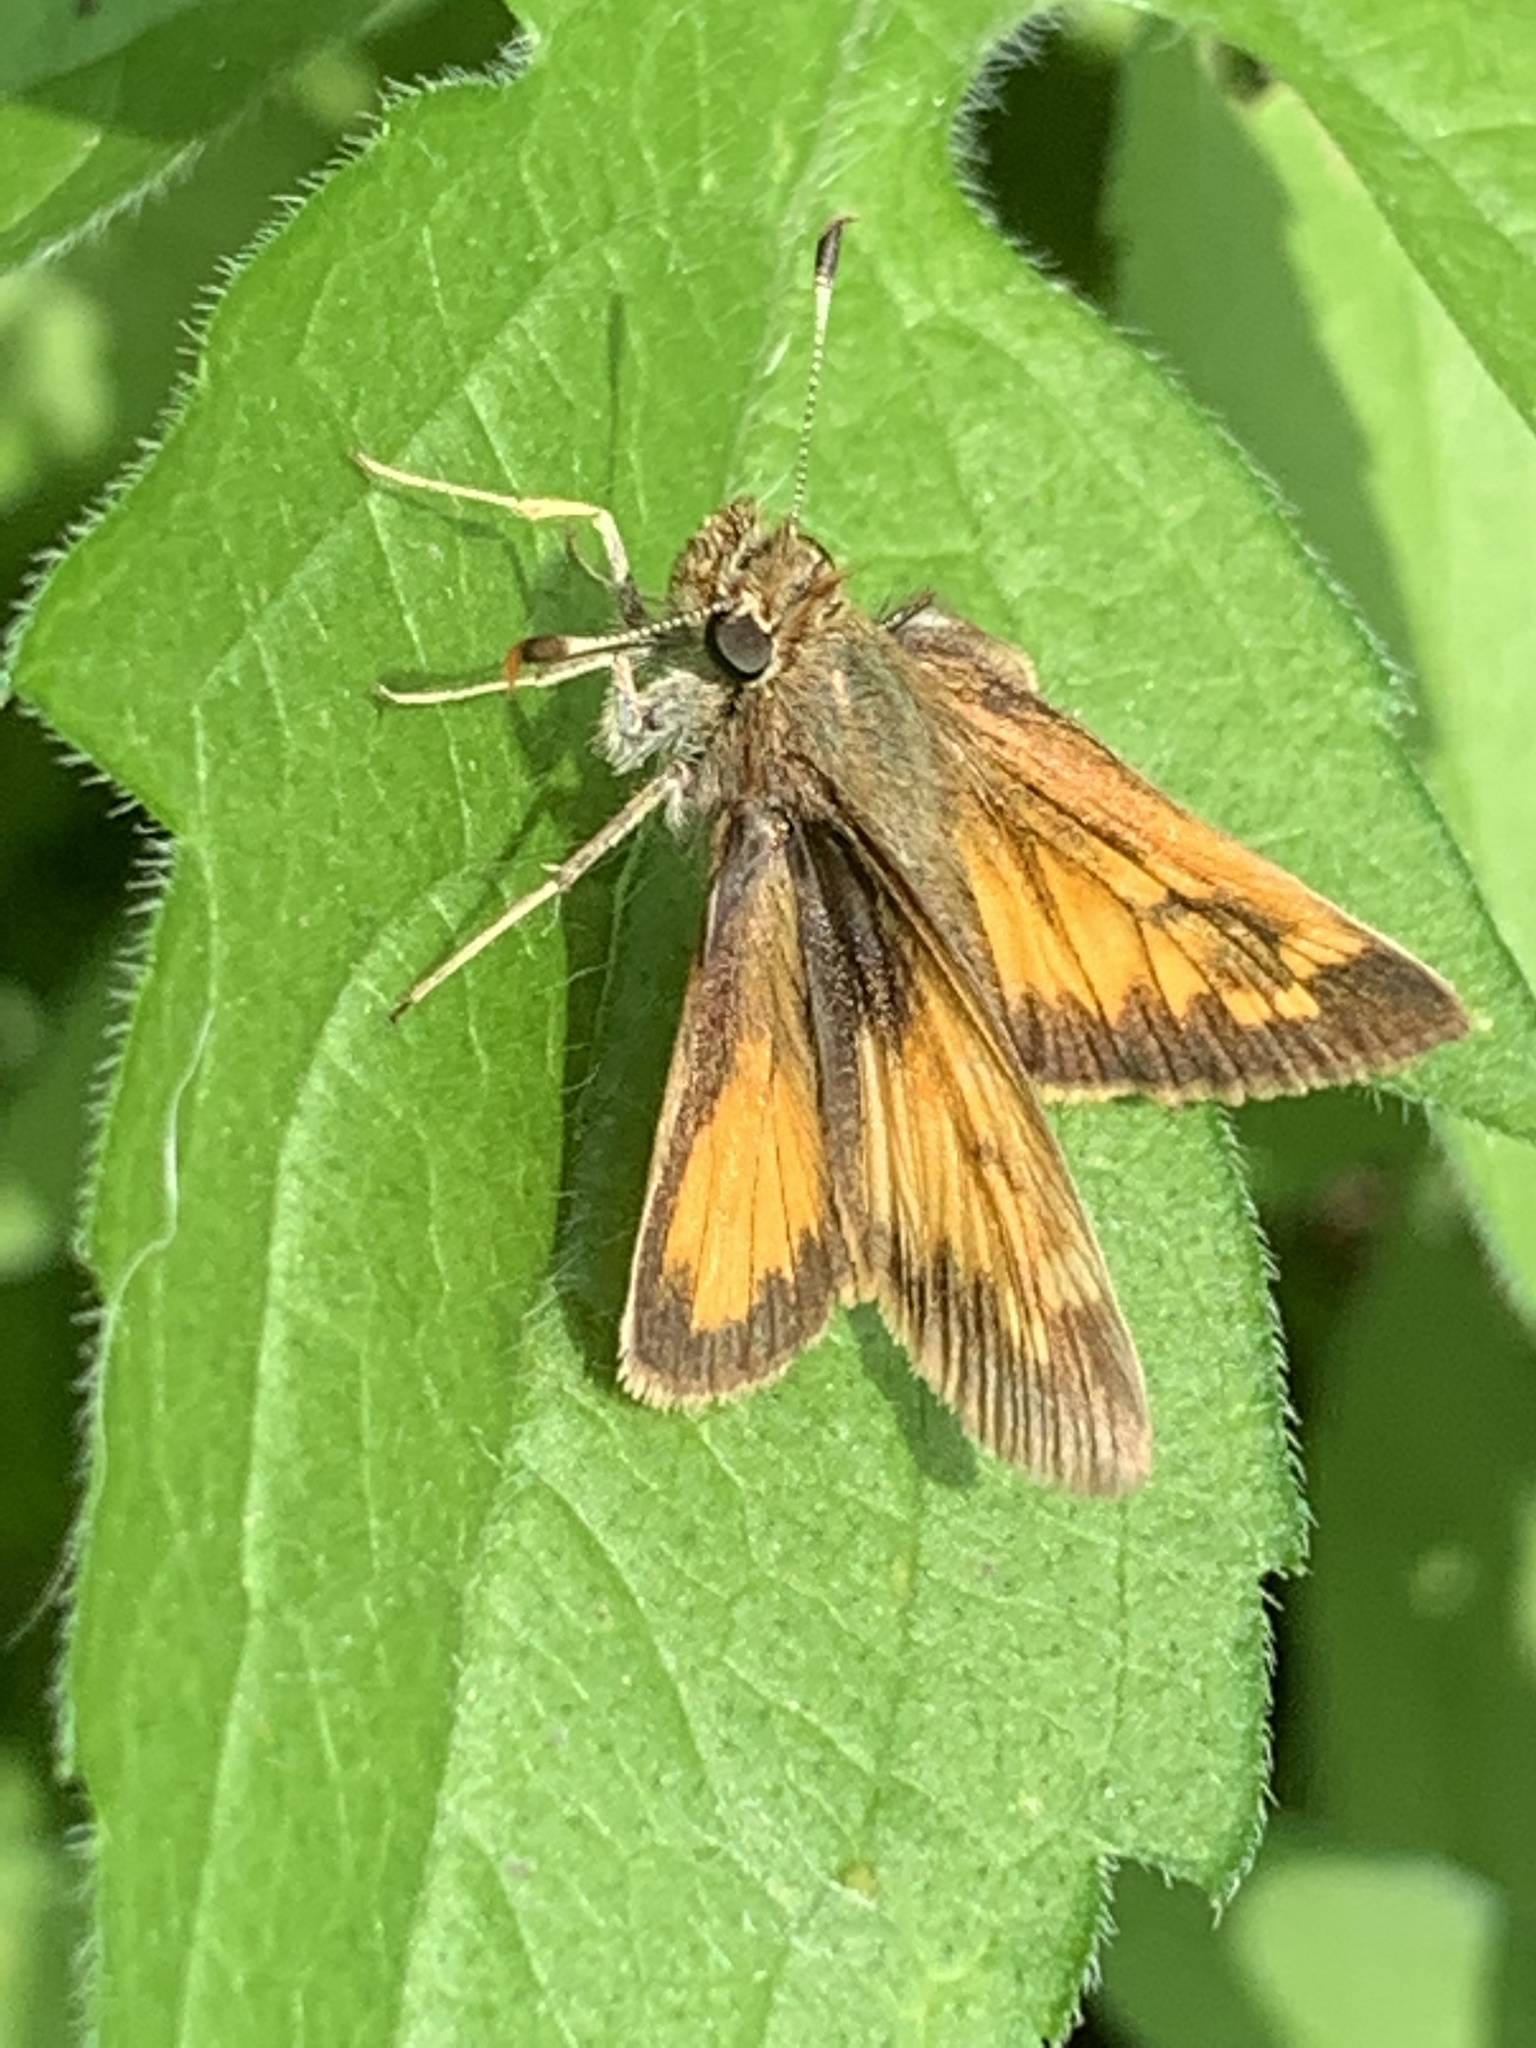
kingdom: Animalia
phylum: Arthropoda
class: Insecta
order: Lepidoptera
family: Hesperiidae
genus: Lon
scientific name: Lon hobomok
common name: Hobomok skipper
